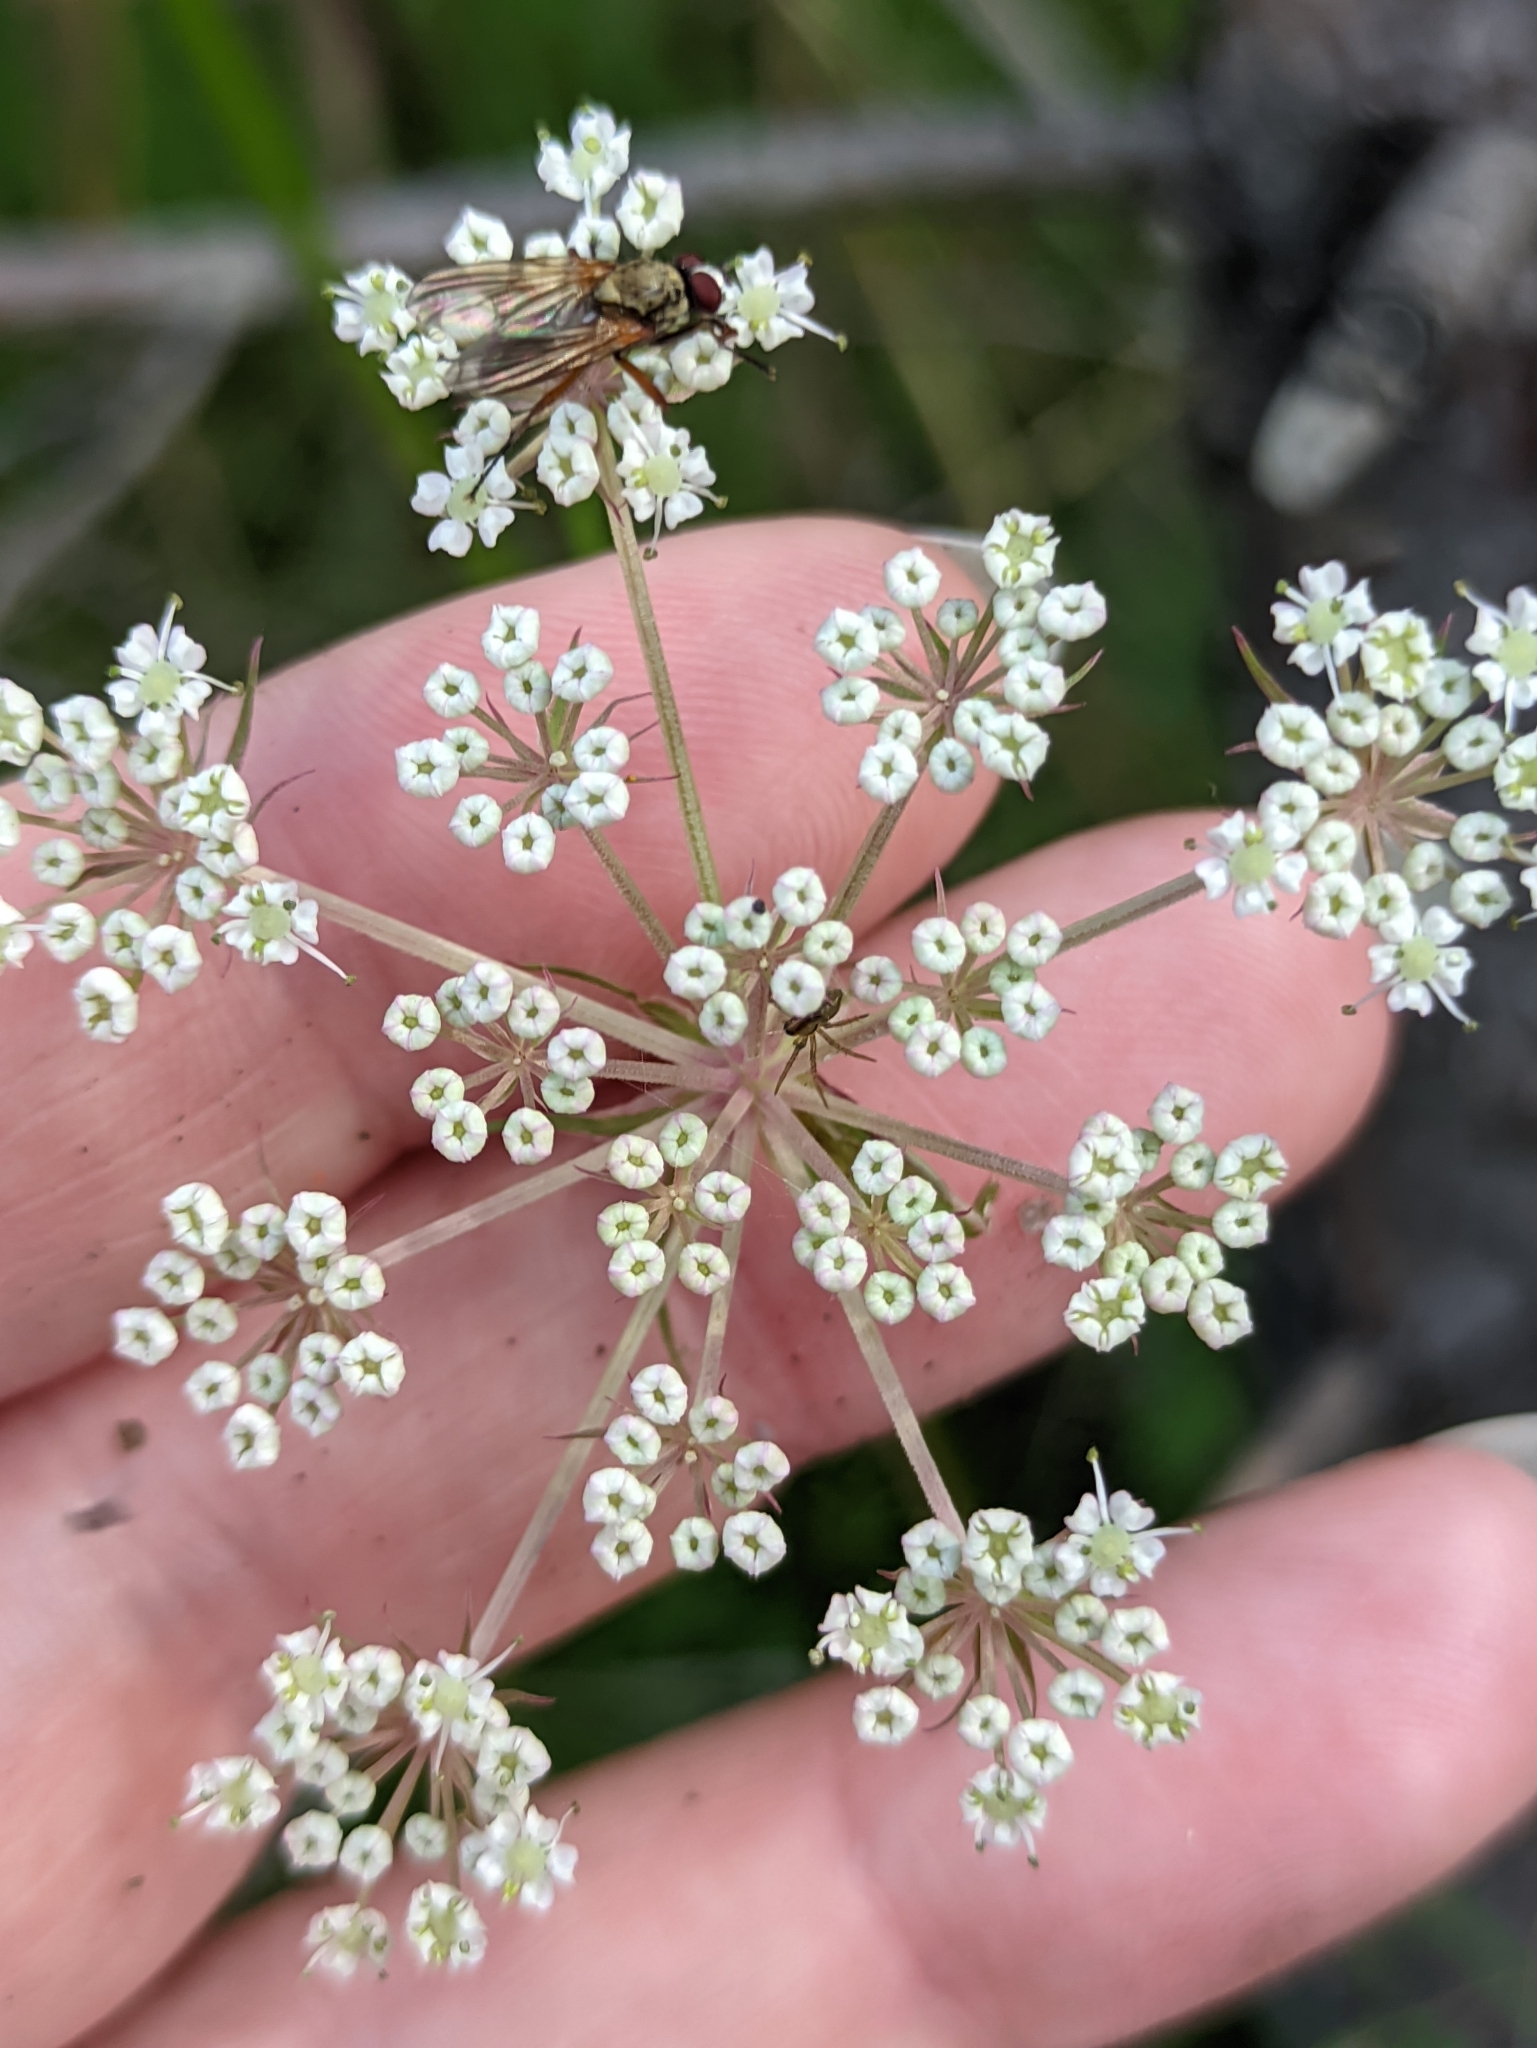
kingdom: Plantae
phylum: Tracheophyta
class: Magnoliopsida
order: Apiales
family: Apiaceae
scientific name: Apiaceae
